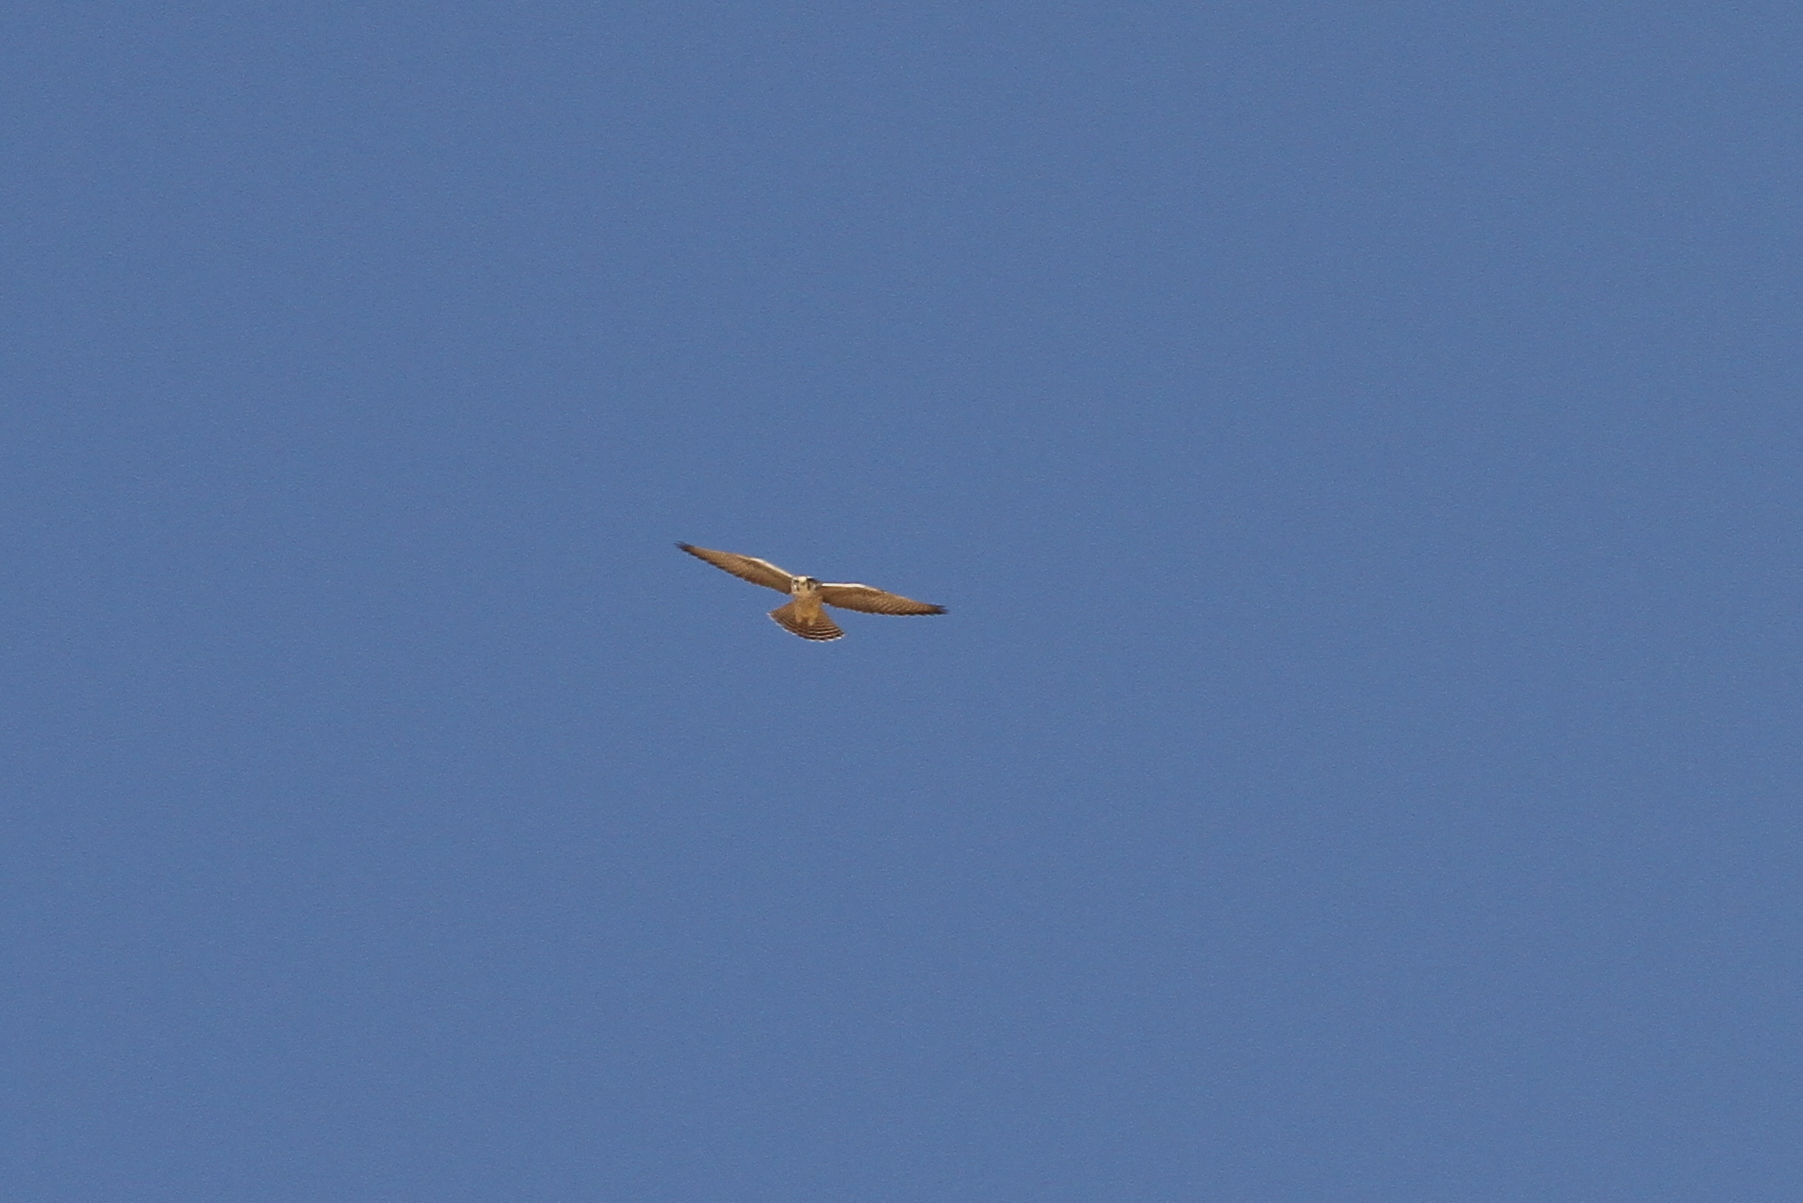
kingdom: Animalia
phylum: Chordata
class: Aves
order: Falconiformes
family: Falconidae
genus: Falco
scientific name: Falco biarmicus
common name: Lanner falcon
